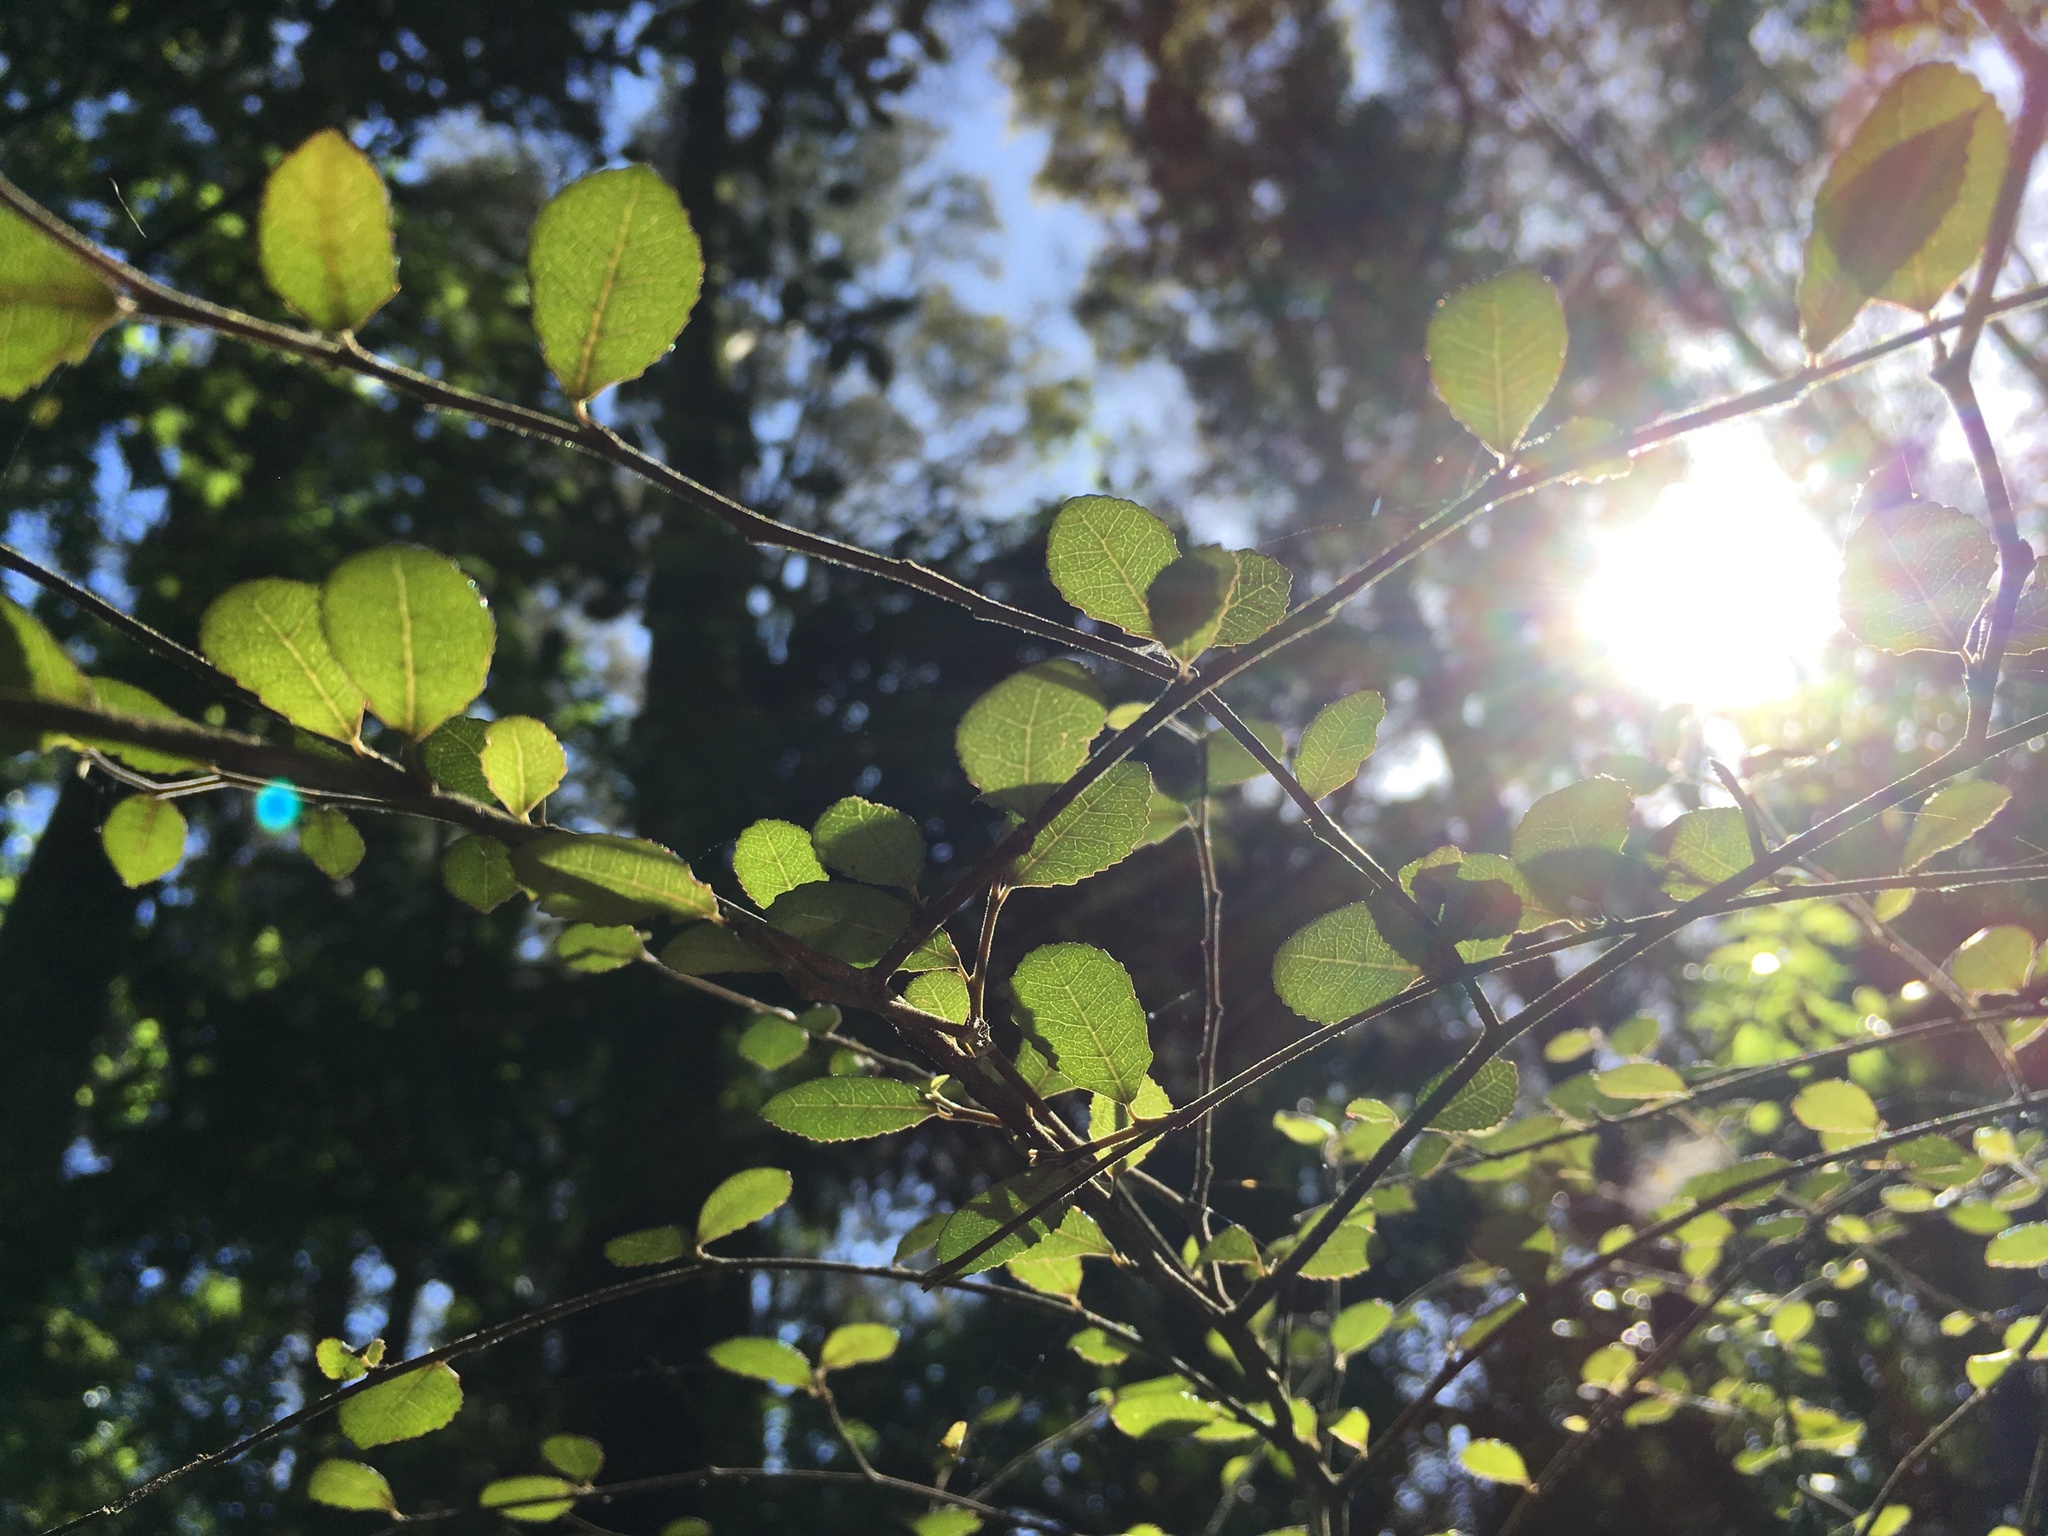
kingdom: Plantae
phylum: Tracheophyta
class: Magnoliopsida
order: Rosales
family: Moraceae
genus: Paratrophis
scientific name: Paratrophis microphylla
